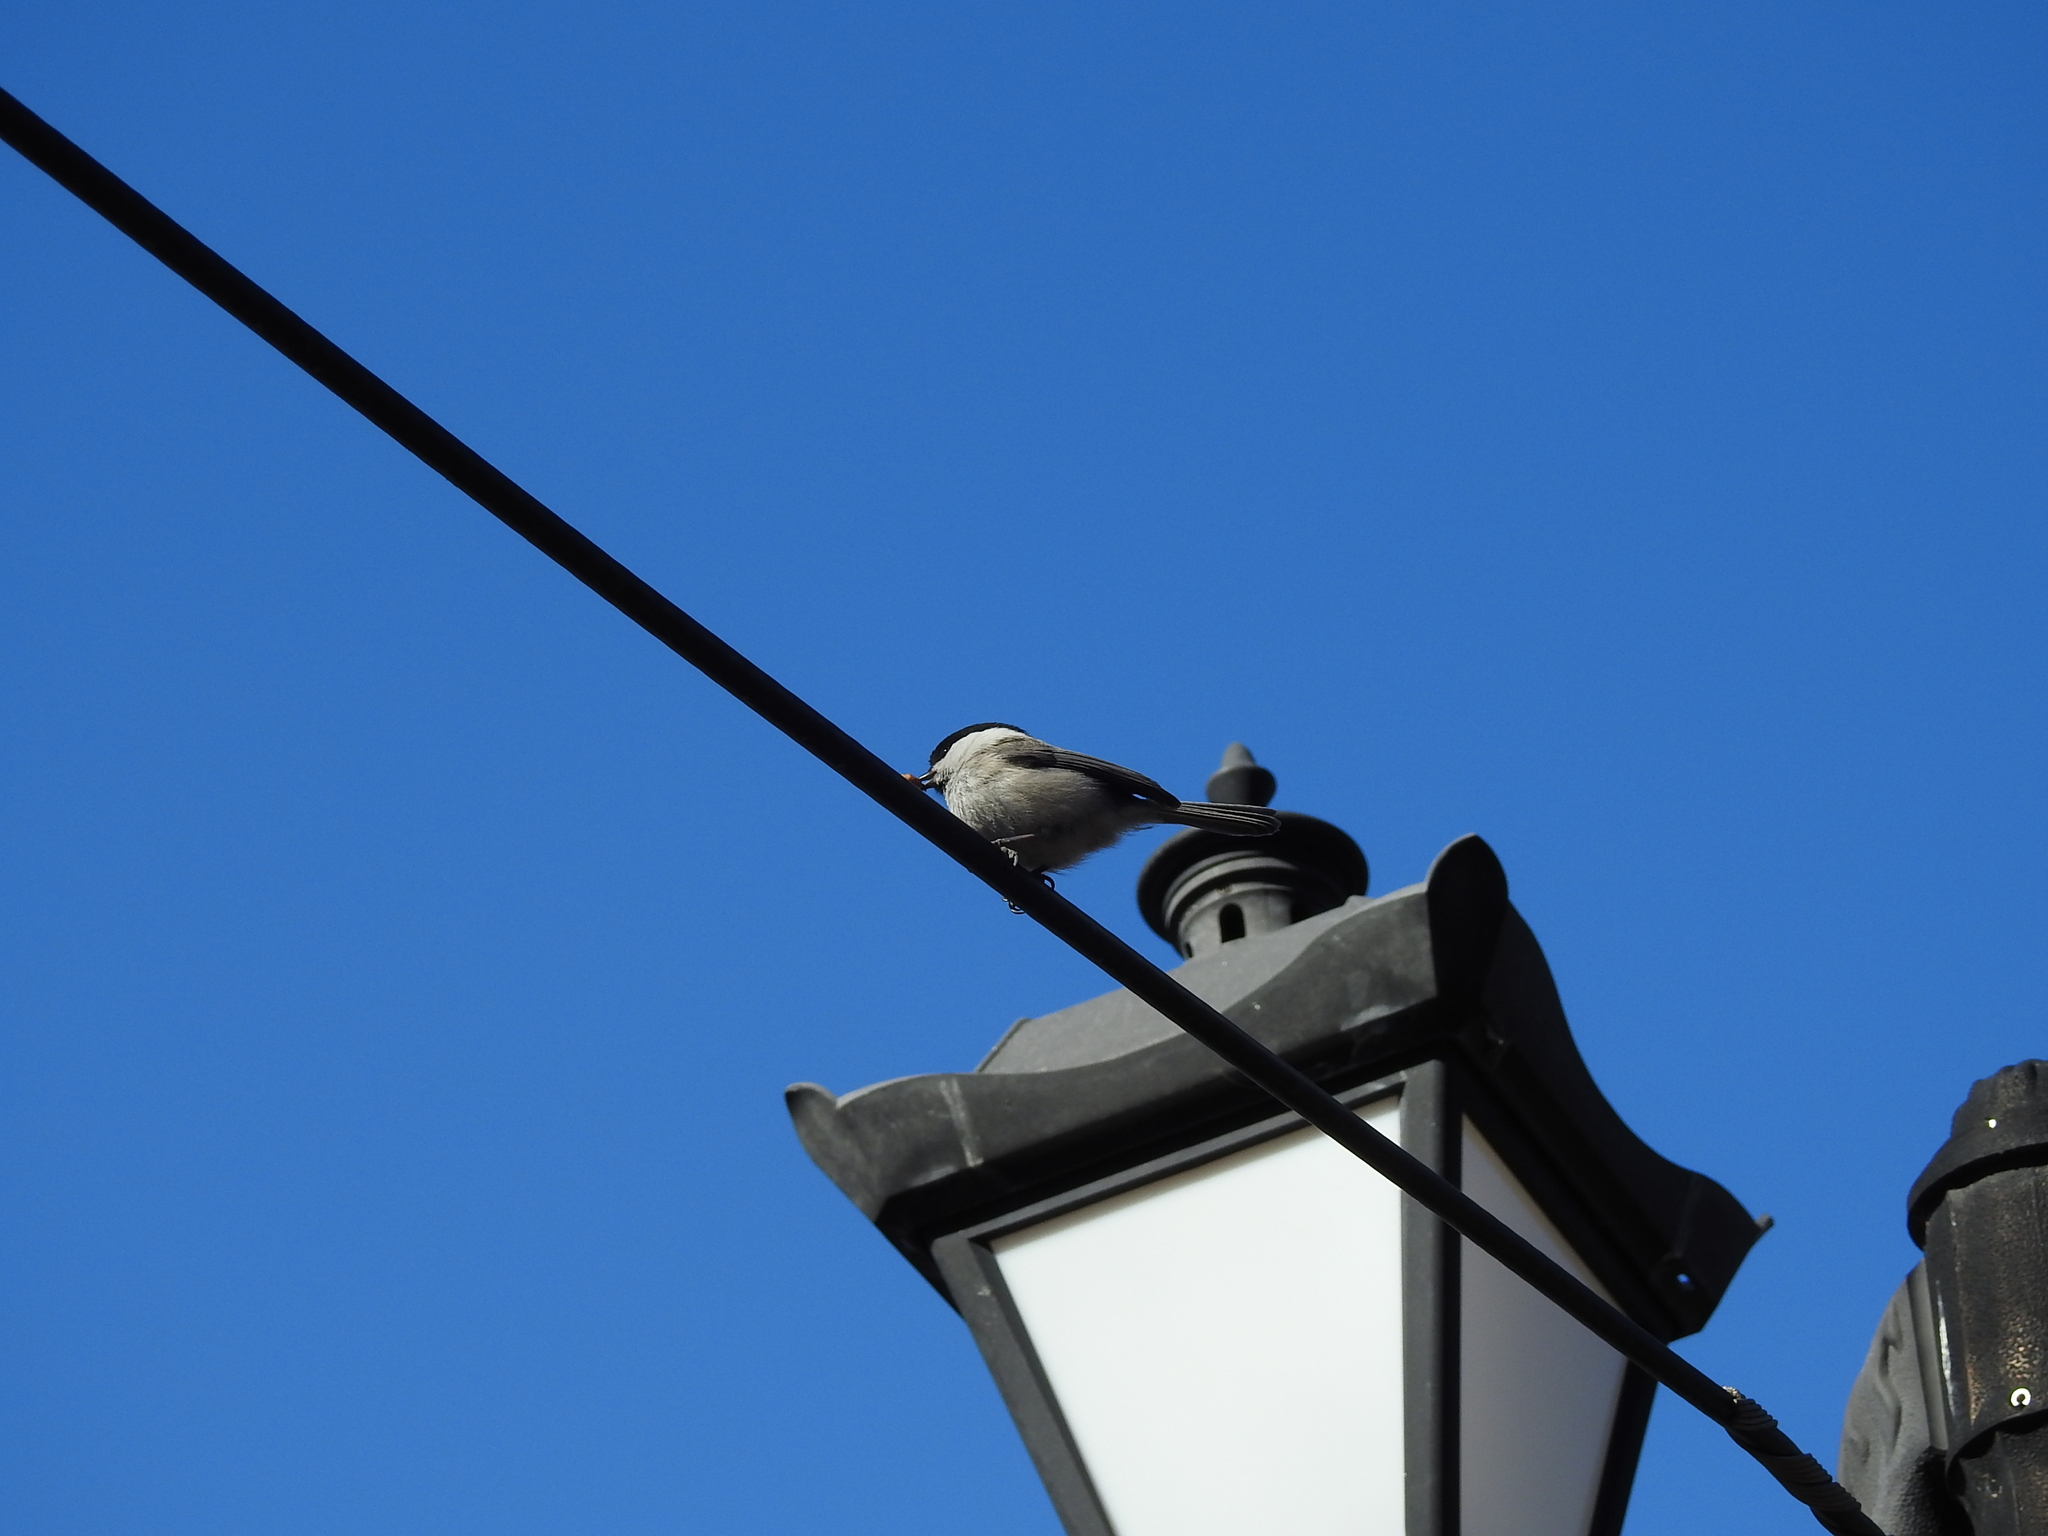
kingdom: Animalia
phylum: Chordata
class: Aves
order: Passeriformes
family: Paridae
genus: Poecile
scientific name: Poecile montanus
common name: Willow tit
